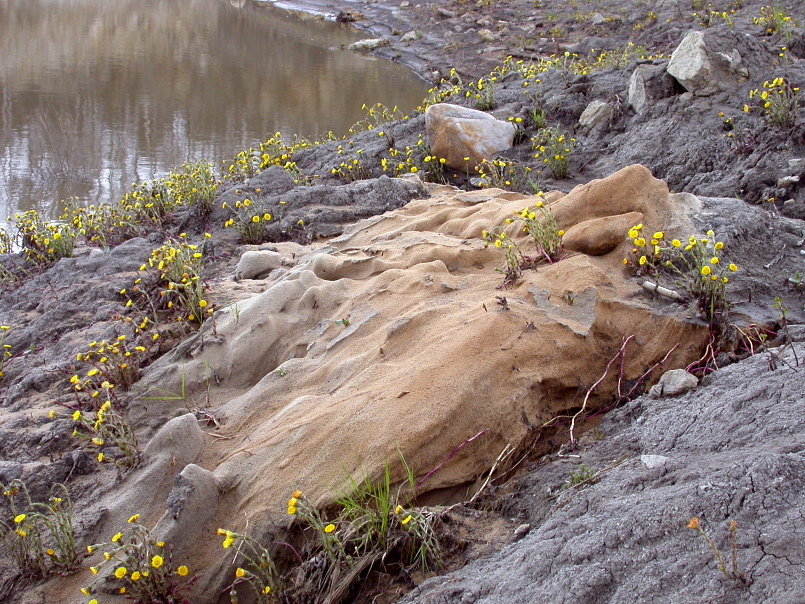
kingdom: Plantae
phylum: Tracheophyta
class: Magnoliopsida
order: Asterales
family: Asteraceae
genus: Tussilago
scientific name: Tussilago farfara
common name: Coltsfoot
